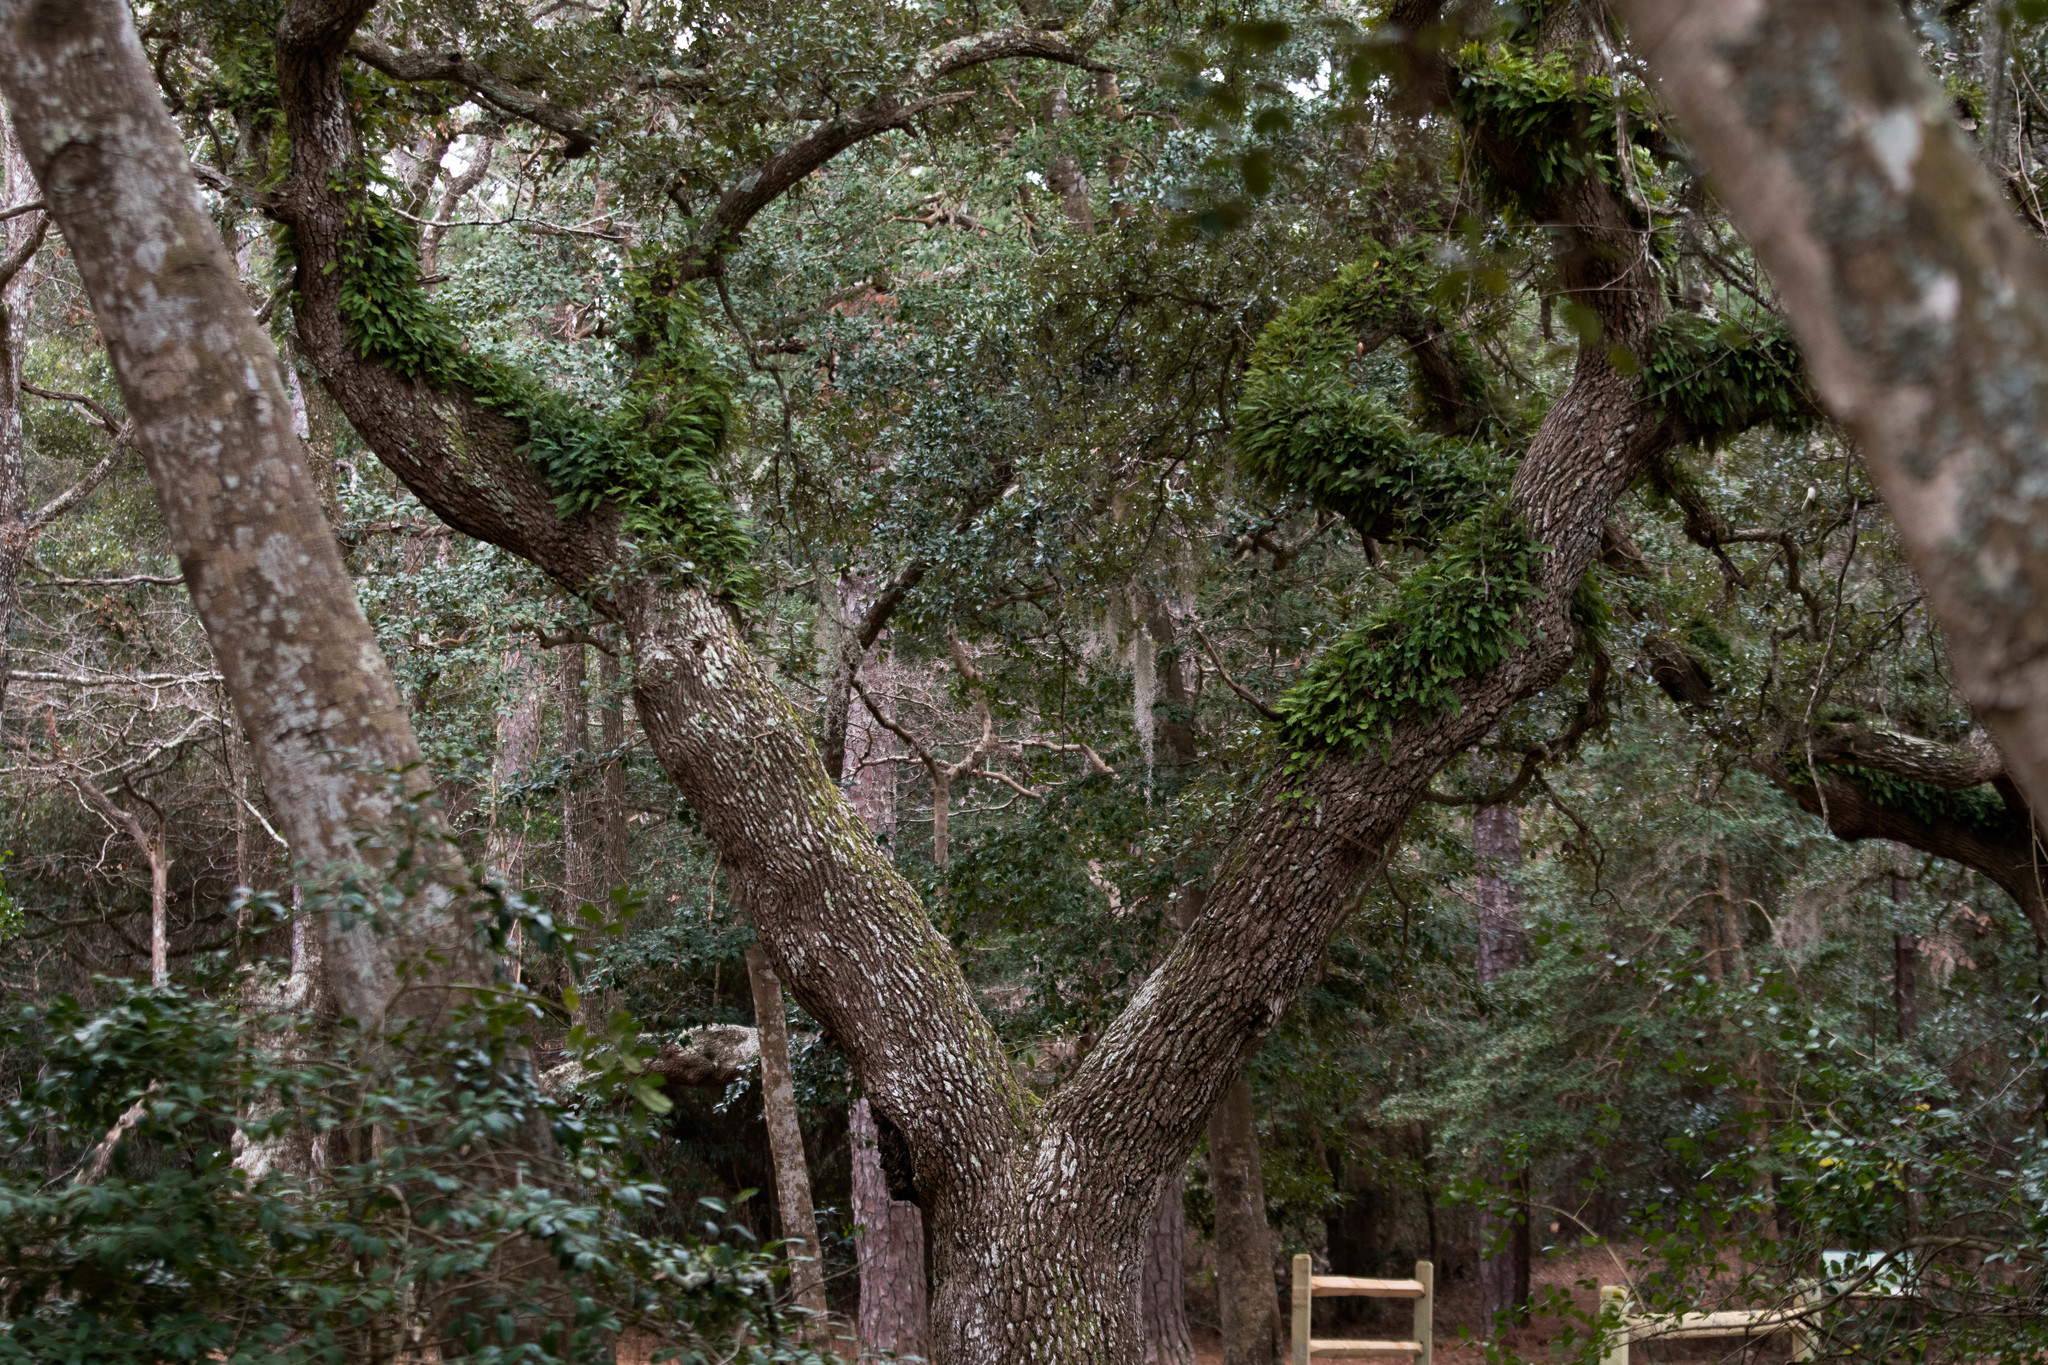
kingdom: Plantae
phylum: Tracheophyta
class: Polypodiopsida
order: Polypodiales
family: Polypodiaceae
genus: Pleopeltis
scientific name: Pleopeltis michauxiana
